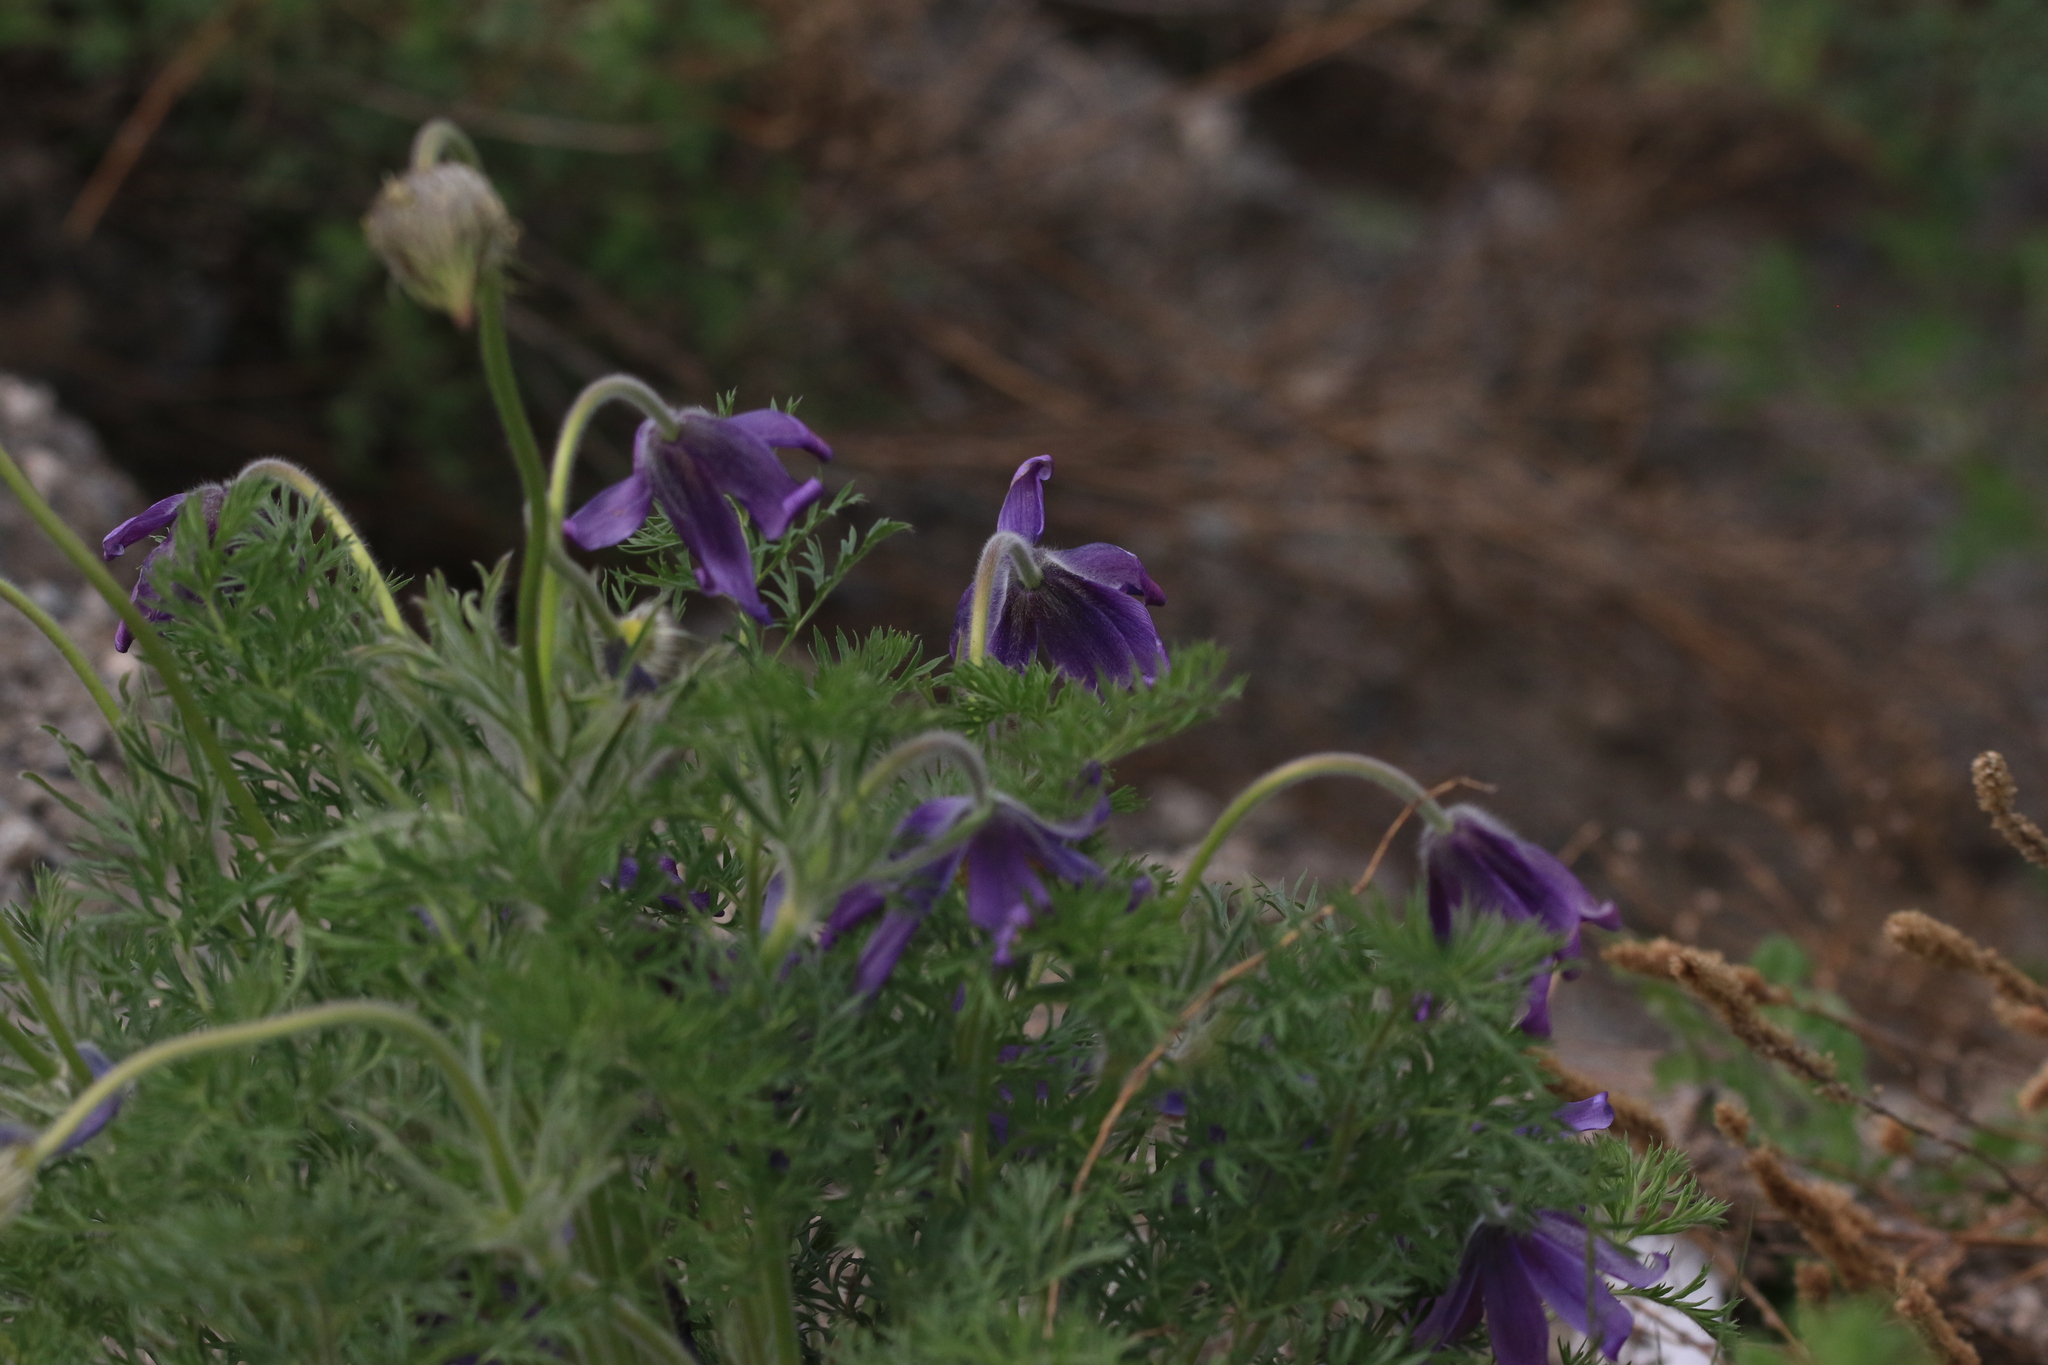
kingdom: Plantae
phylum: Tracheophyta
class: Magnoliopsida
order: Ranunculales
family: Ranunculaceae
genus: Pulsatilla
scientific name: Pulsatilla turczaninovii
